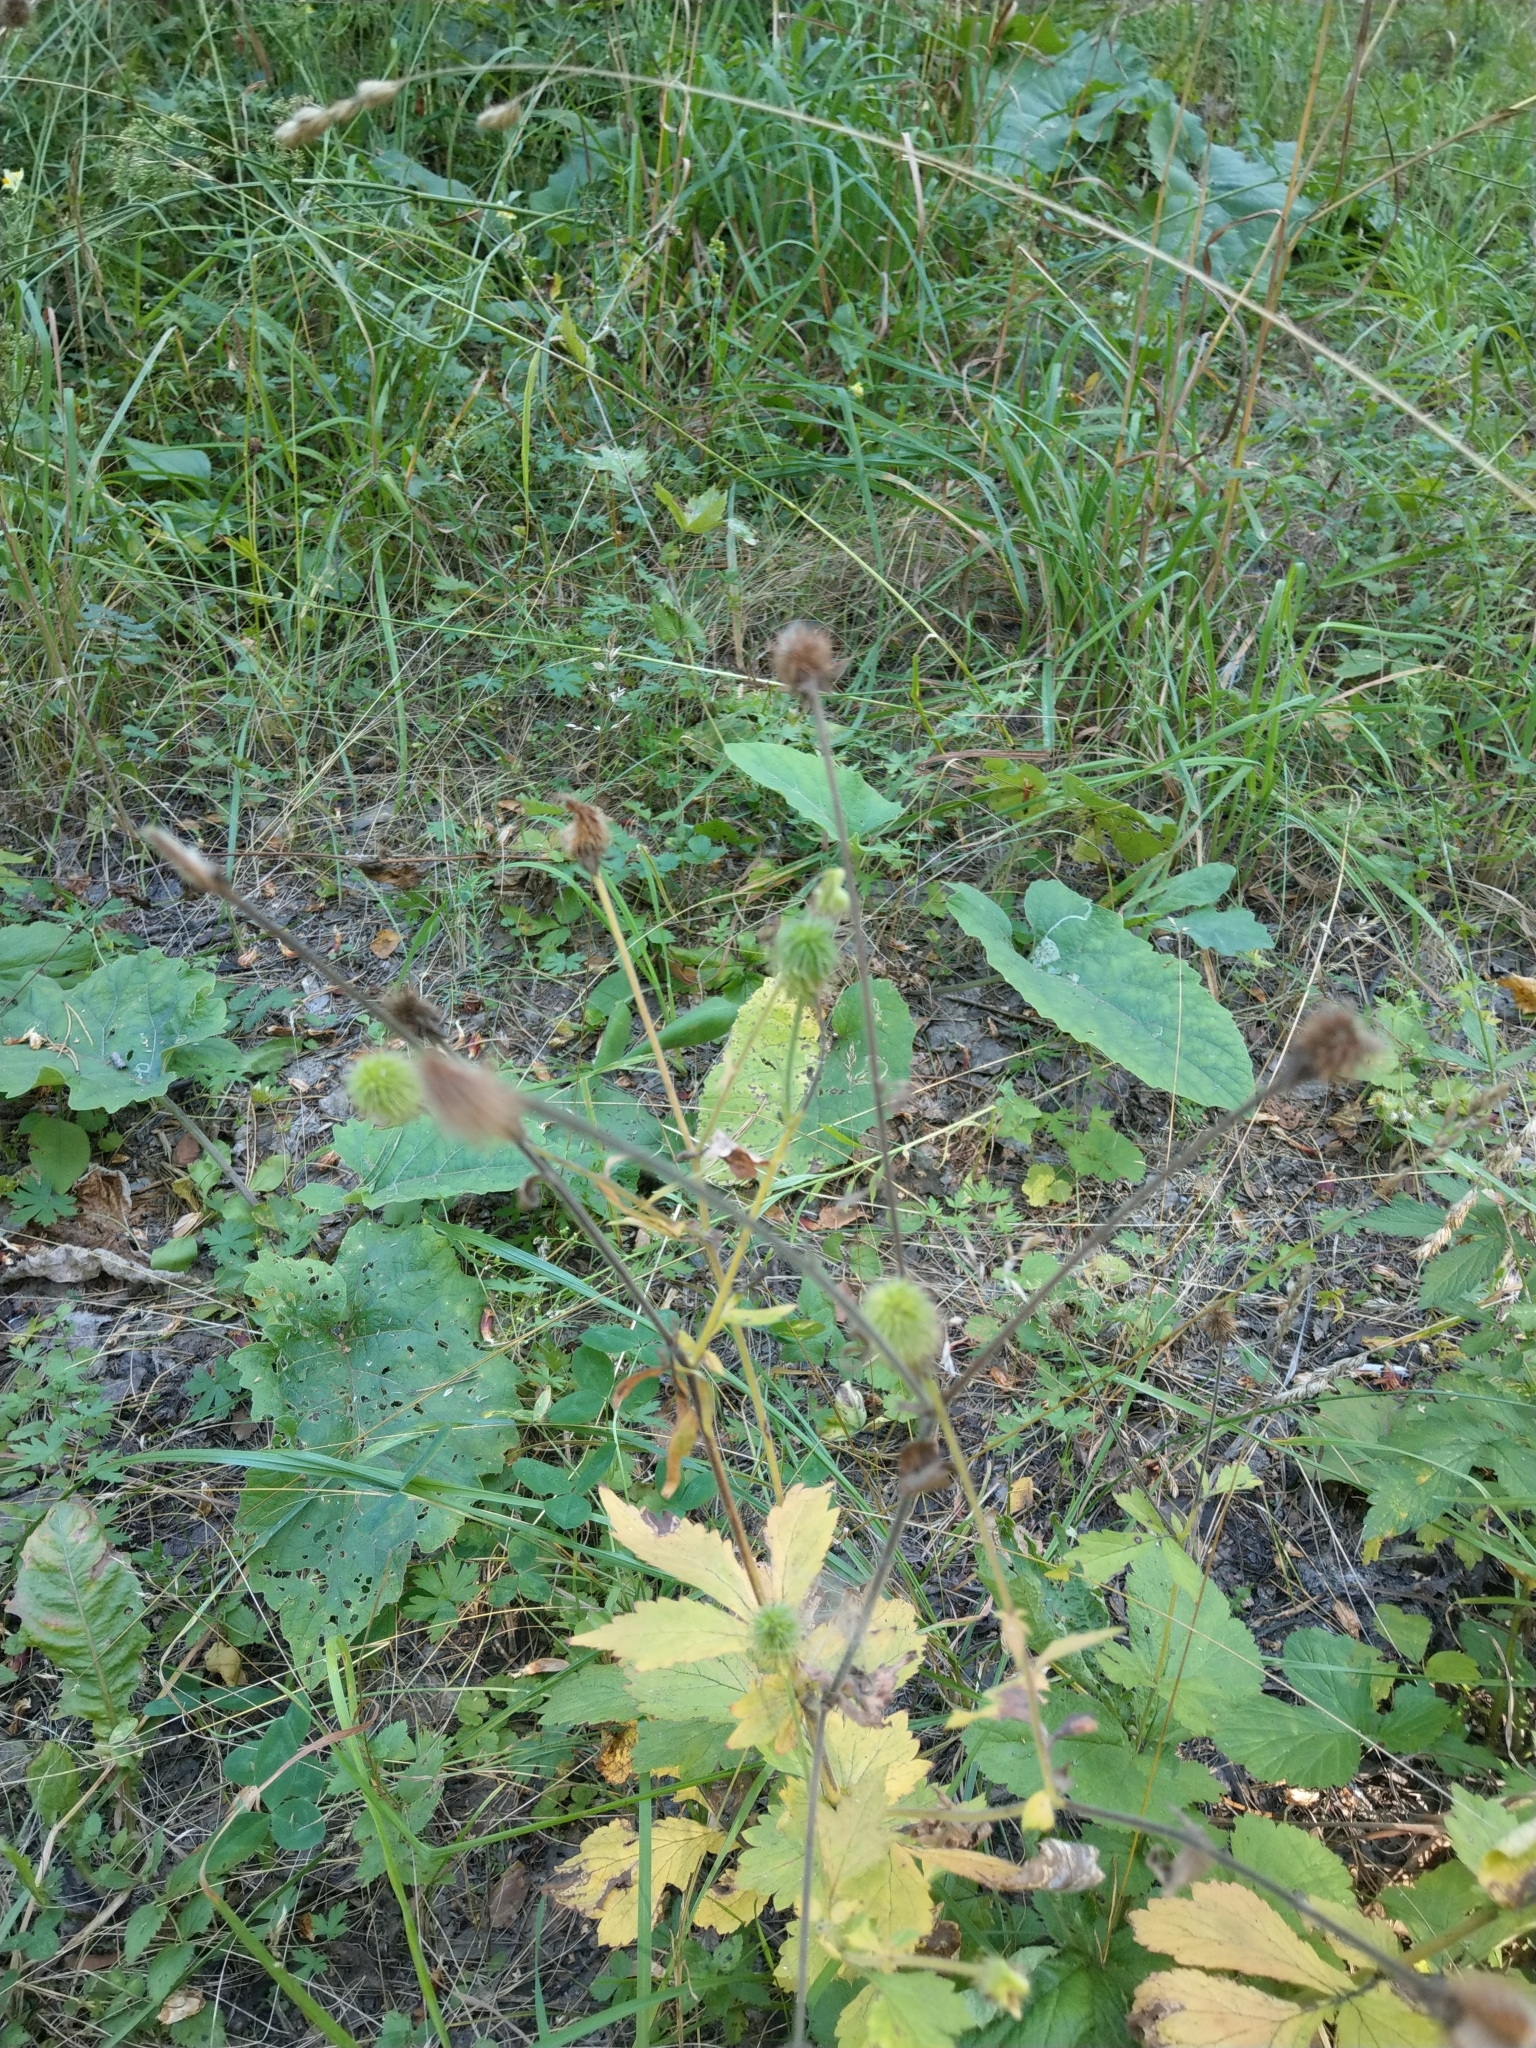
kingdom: Plantae
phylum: Tracheophyta
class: Magnoliopsida
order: Rosales
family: Rosaceae
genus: Geum
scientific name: Geum aleppicum
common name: Yellow avens
